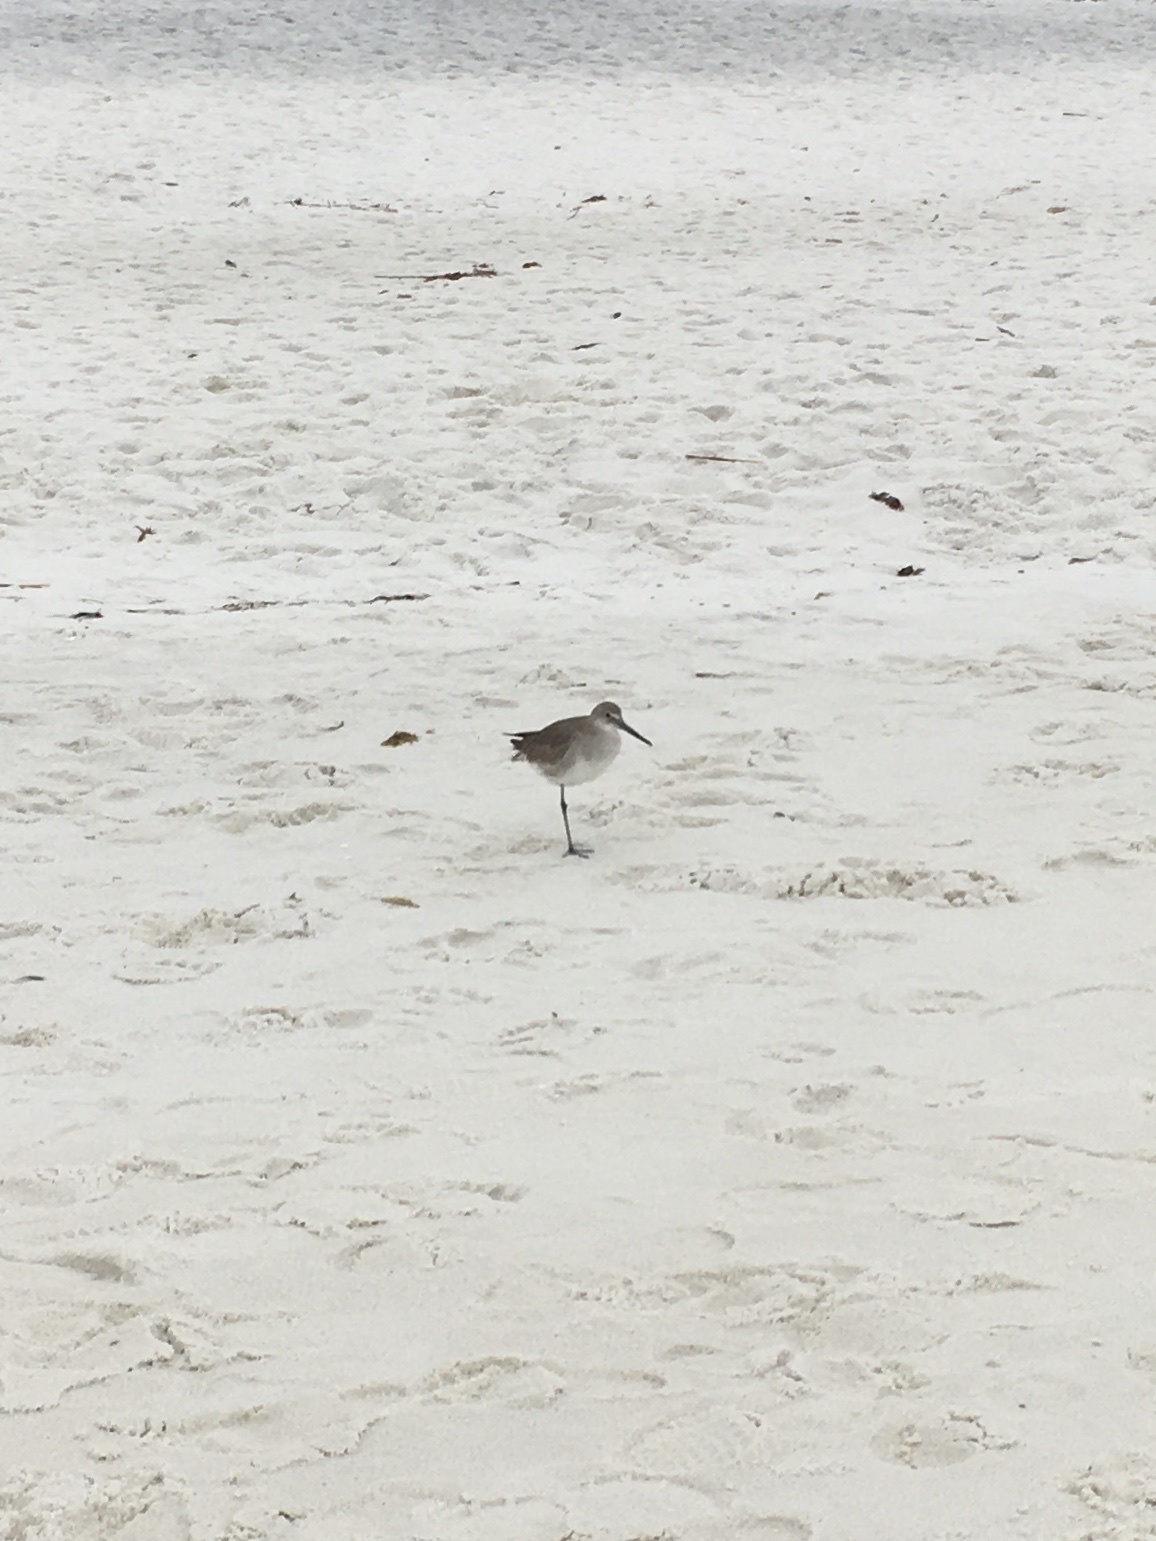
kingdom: Animalia
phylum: Chordata
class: Aves
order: Charadriiformes
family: Scolopacidae
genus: Tringa
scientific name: Tringa semipalmata
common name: Willet
